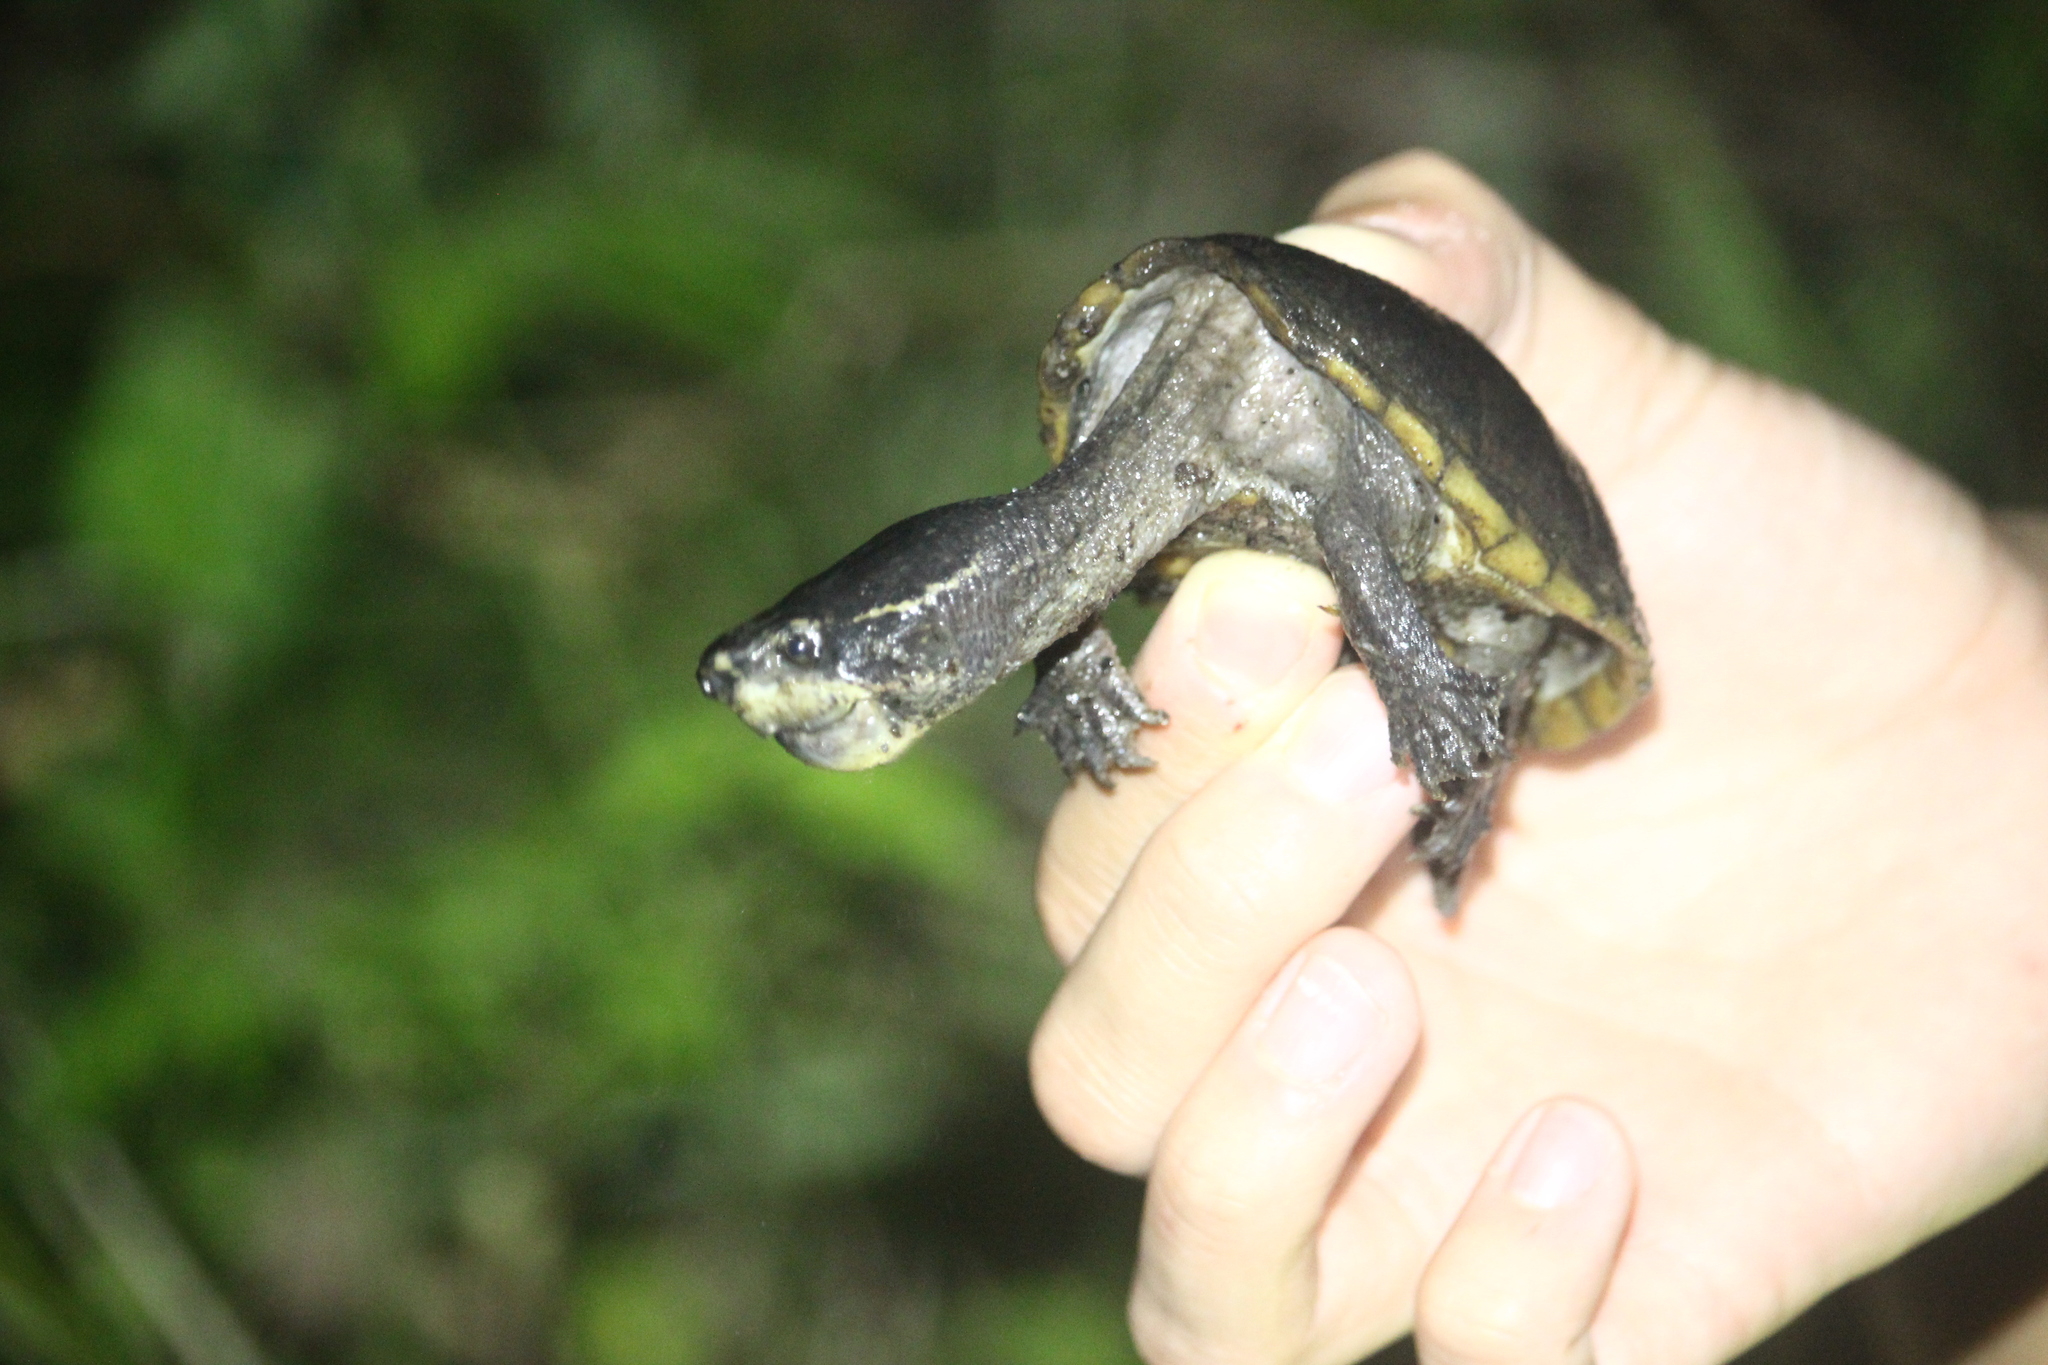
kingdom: Animalia
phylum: Chordata
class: Testudines
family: Kinosternidae
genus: Sternotherus
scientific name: Sternotherus odoratus
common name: Common musk turtle
